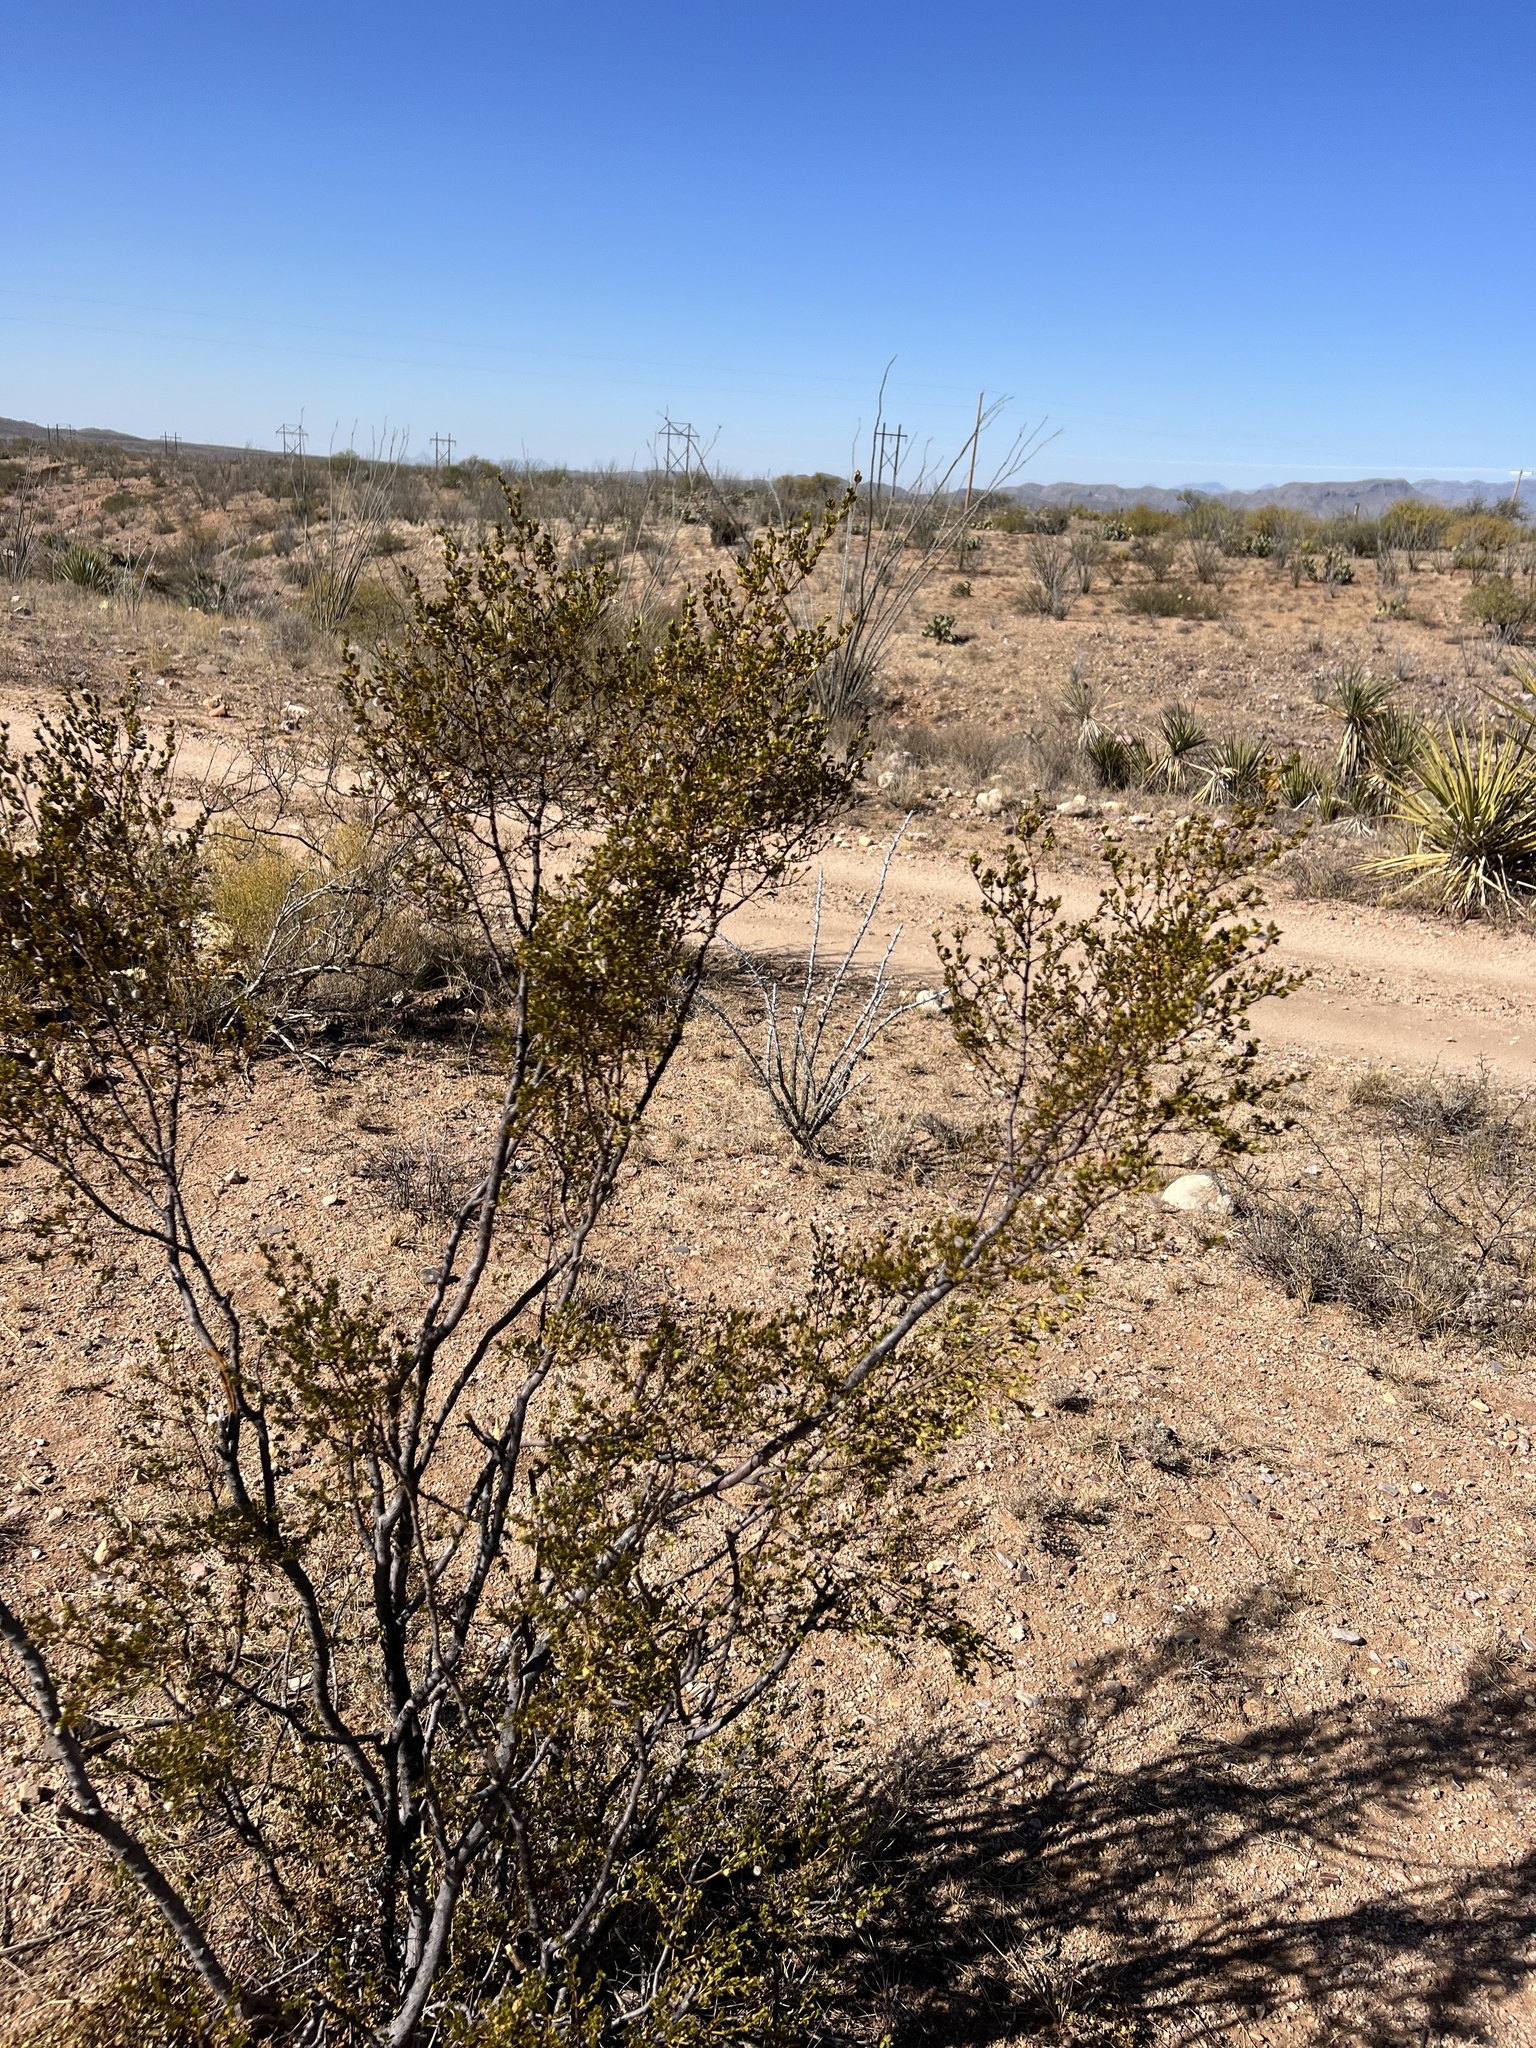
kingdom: Plantae
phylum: Tracheophyta
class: Magnoliopsida
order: Zygophyllales
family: Zygophyllaceae
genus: Larrea
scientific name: Larrea tridentata
